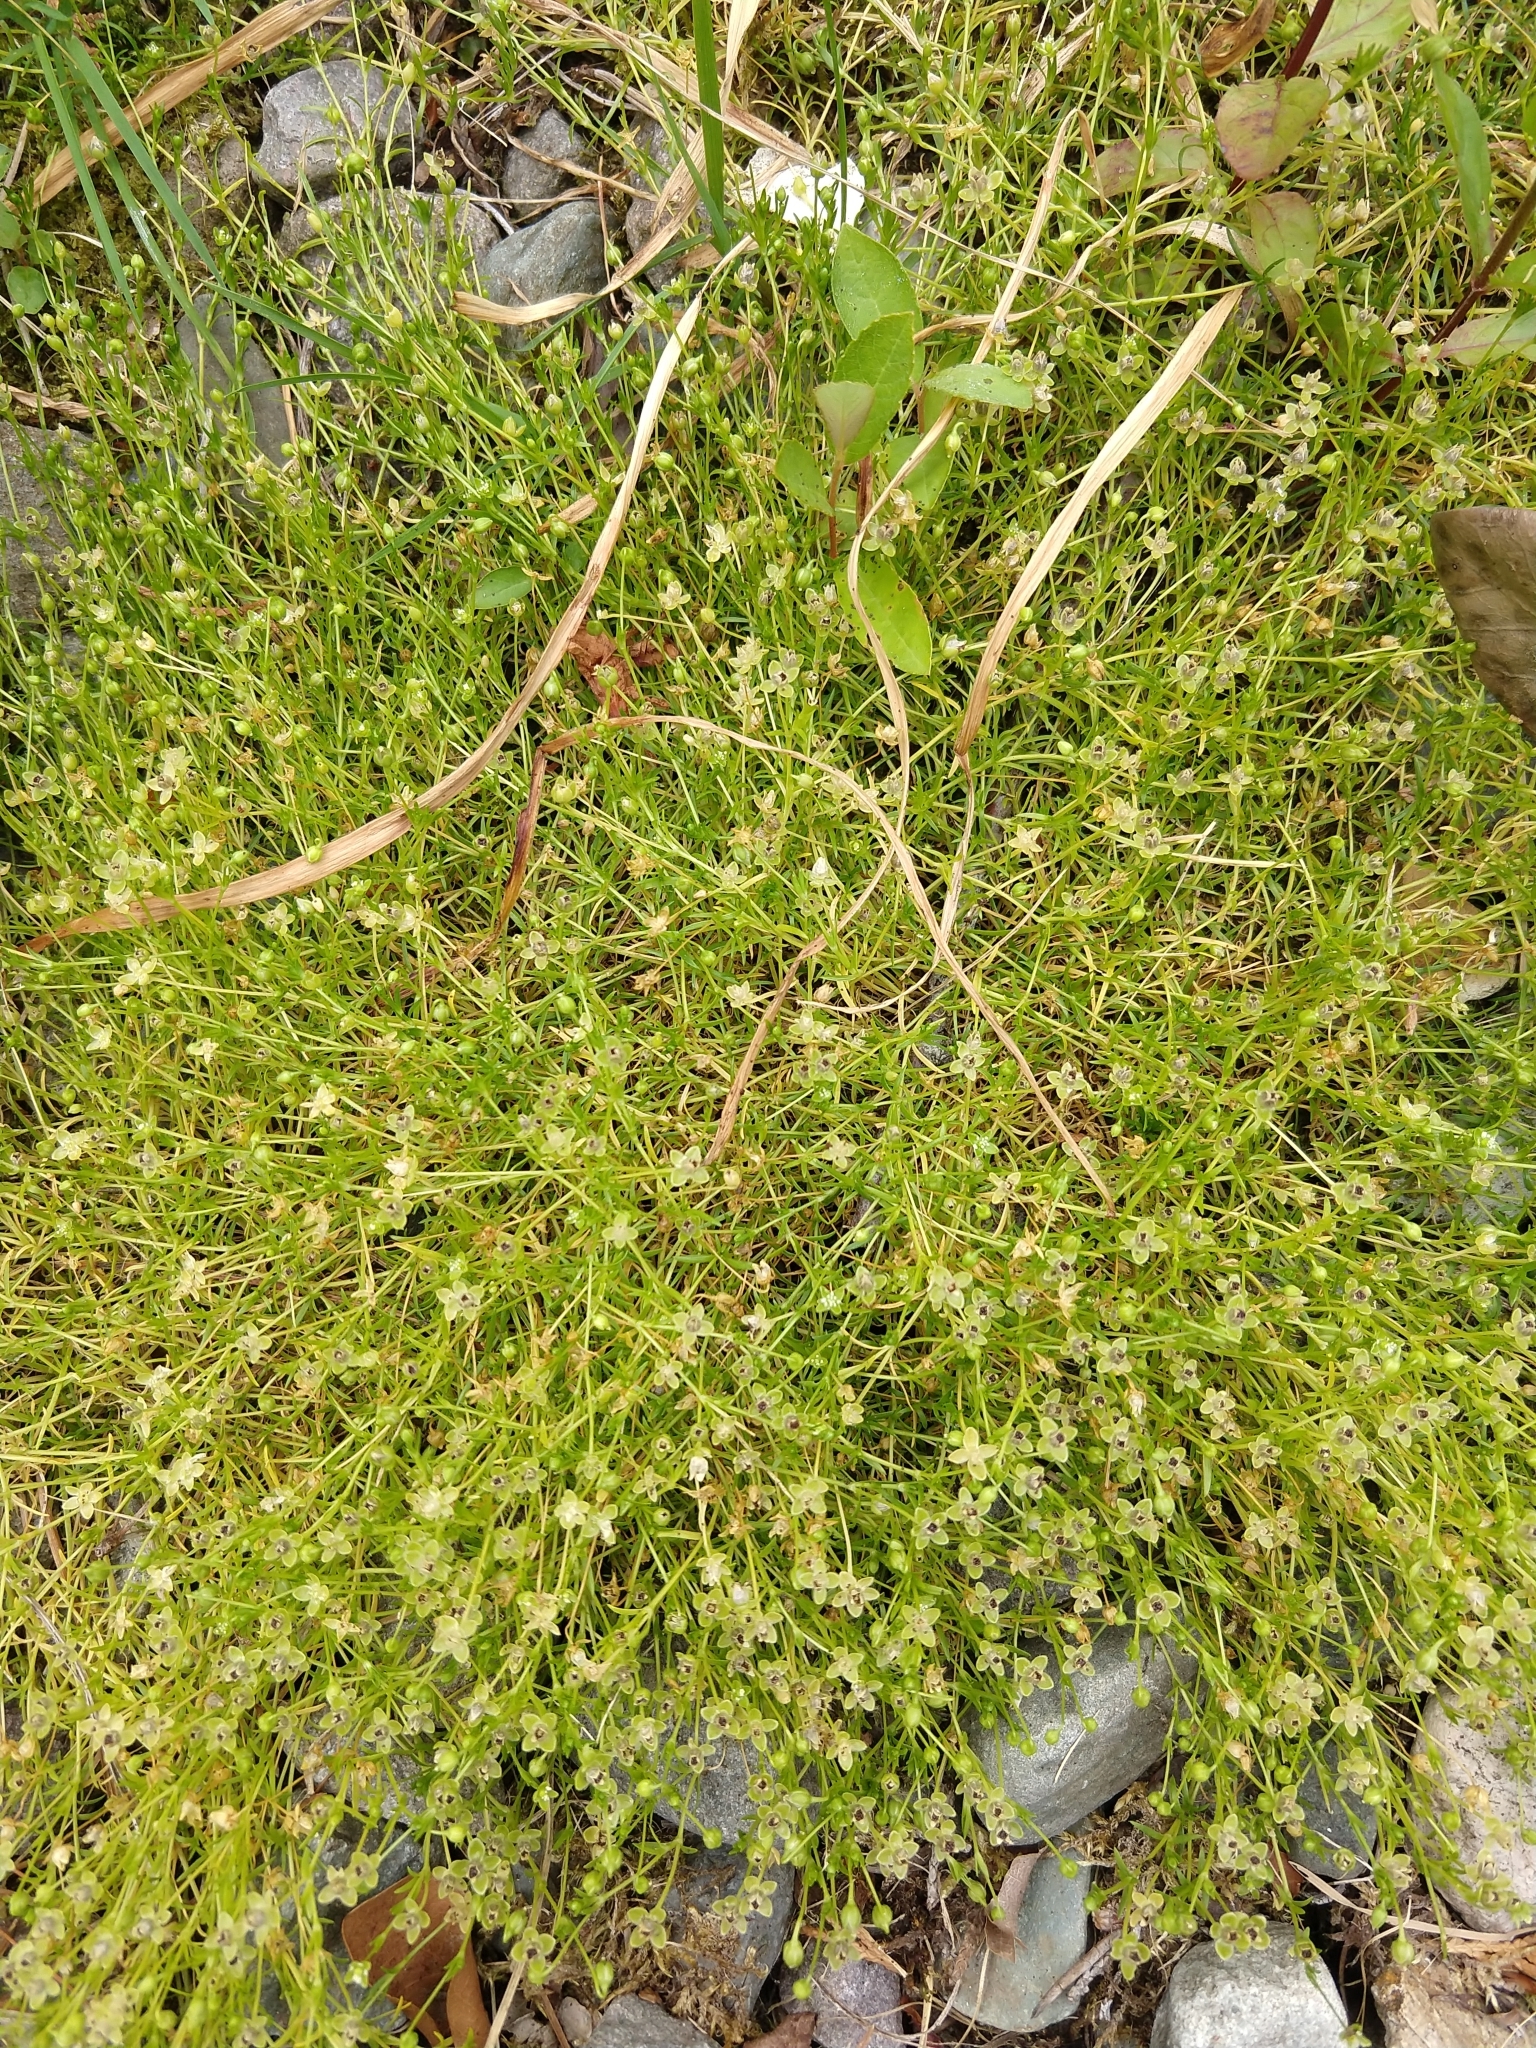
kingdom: Plantae
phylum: Tracheophyta
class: Magnoliopsida
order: Caryophyllales
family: Caryophyllaceae
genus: Sagina
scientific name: Sagina procumbens
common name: Procumbent pearlwort
